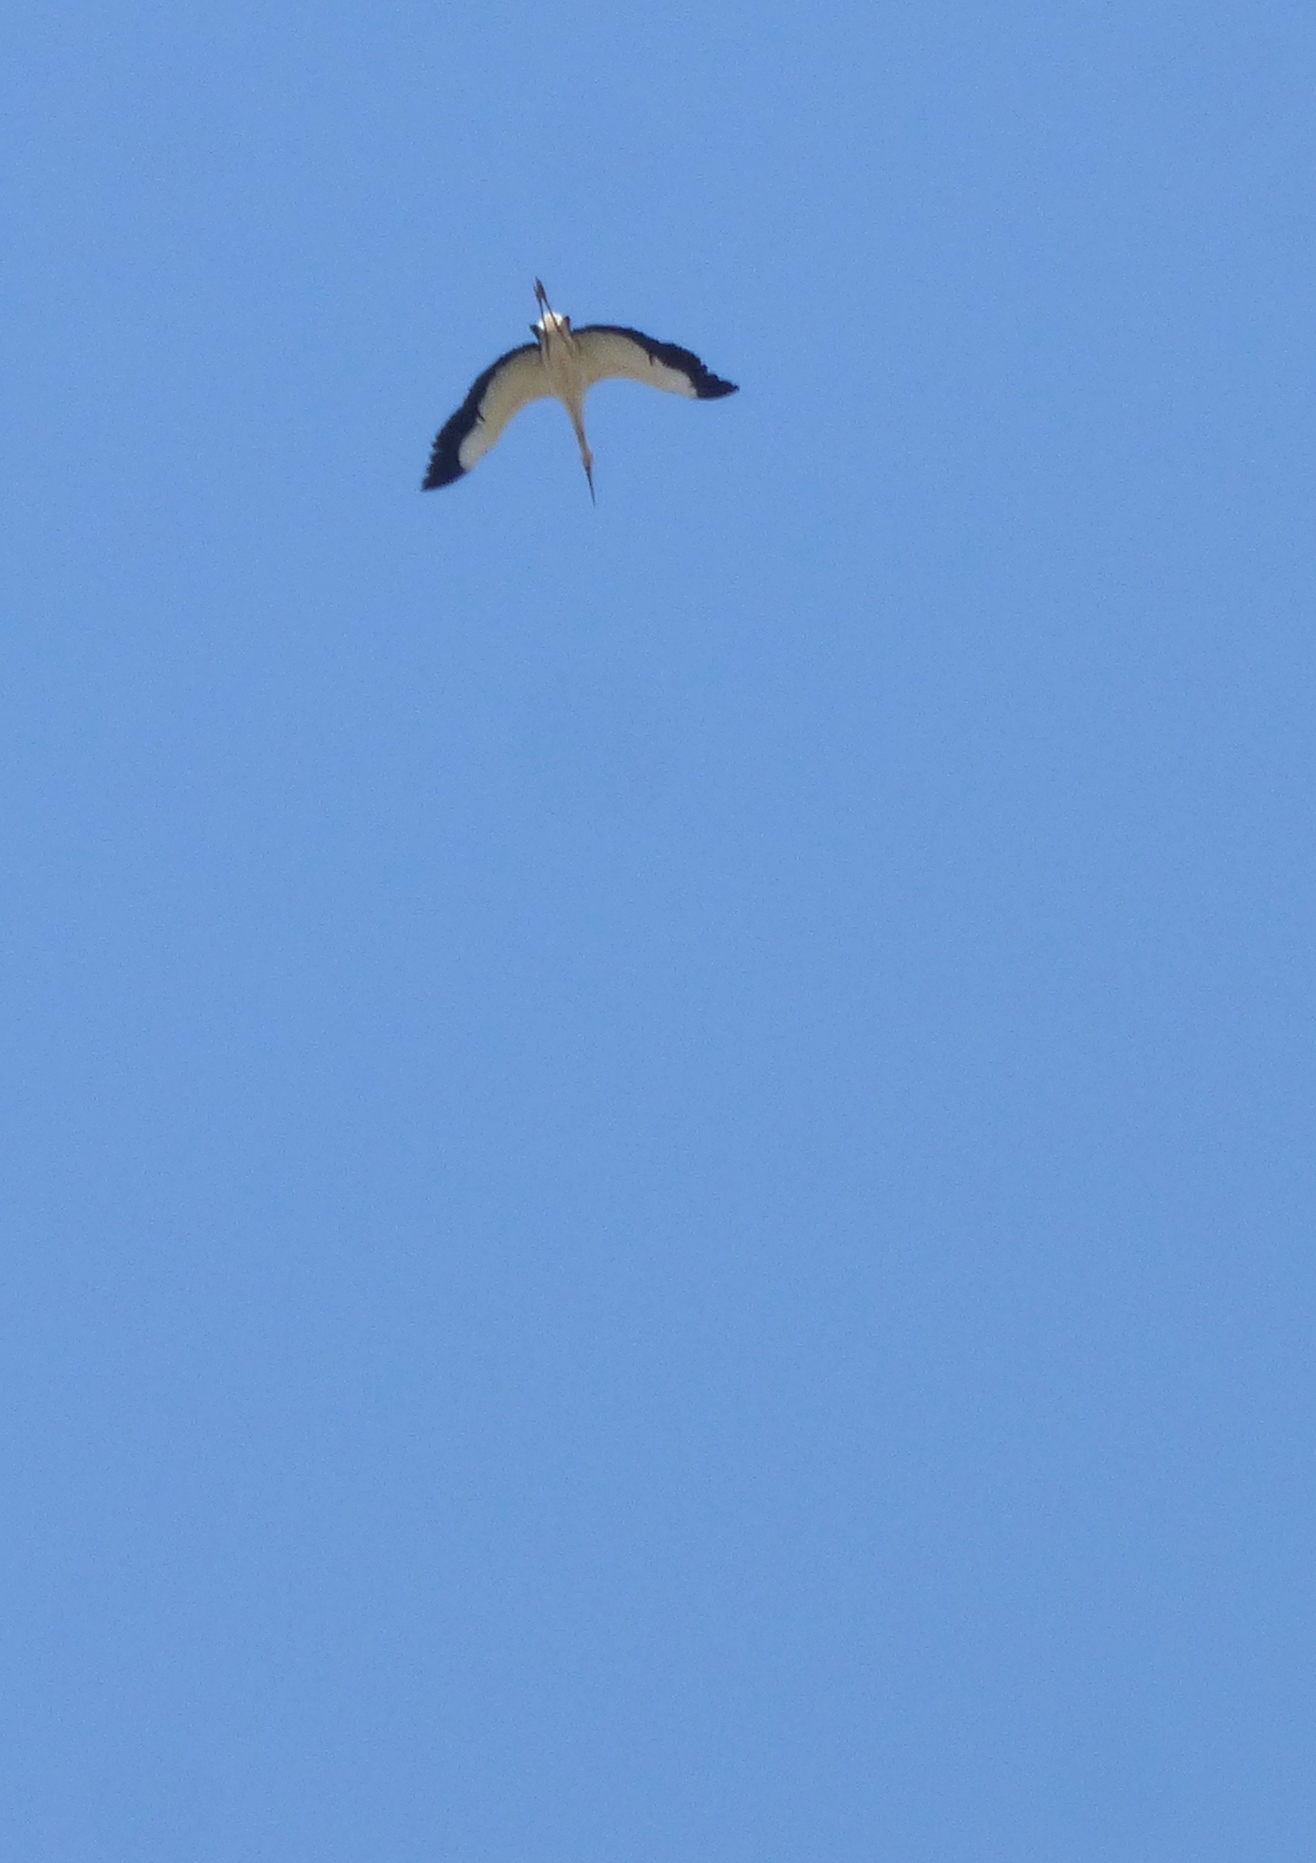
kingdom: Animalia
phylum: Chordata
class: Aves
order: Ciconiiformes
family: Ciconiidae
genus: Ciconia
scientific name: Ciconia maguari
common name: Maguari stork
